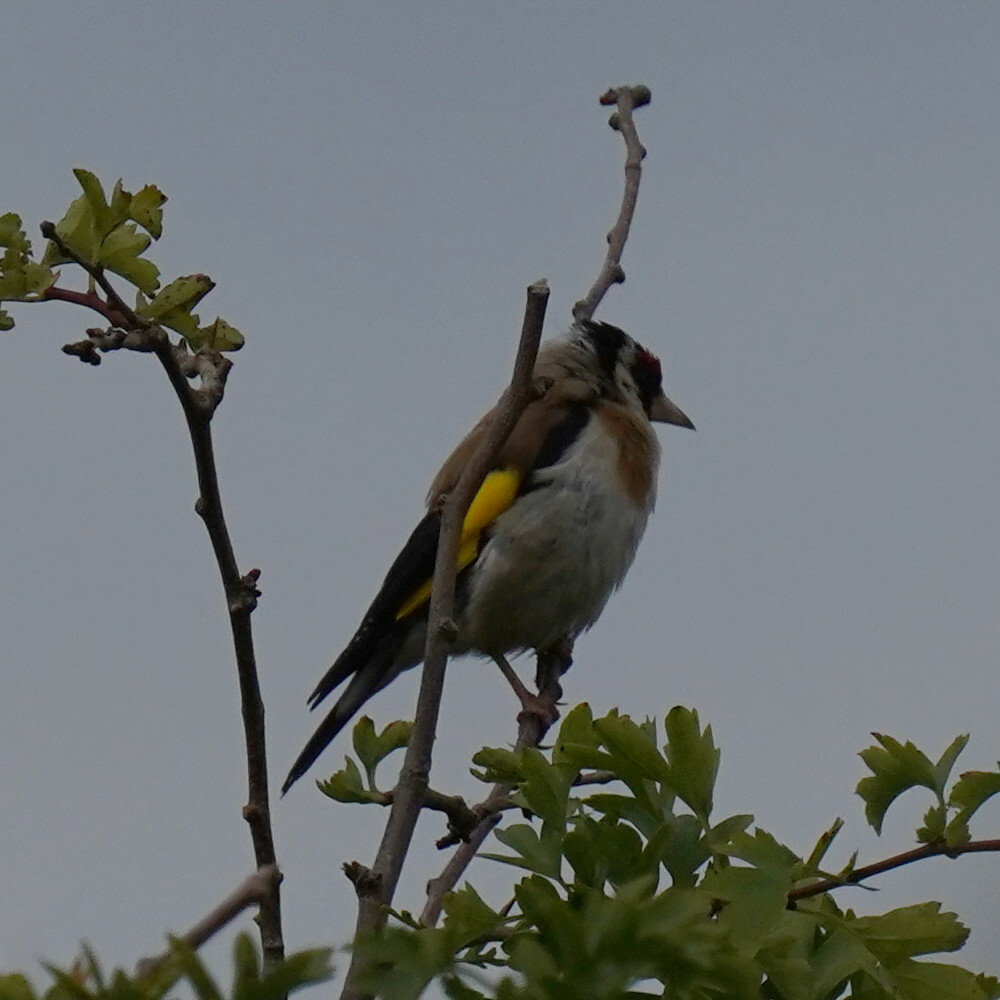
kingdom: Animalia
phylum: Chordata
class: Aves
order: Passeriformes
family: Fringillidae
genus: Carduelis
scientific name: Carduelis carduelis
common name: European goldfinch
